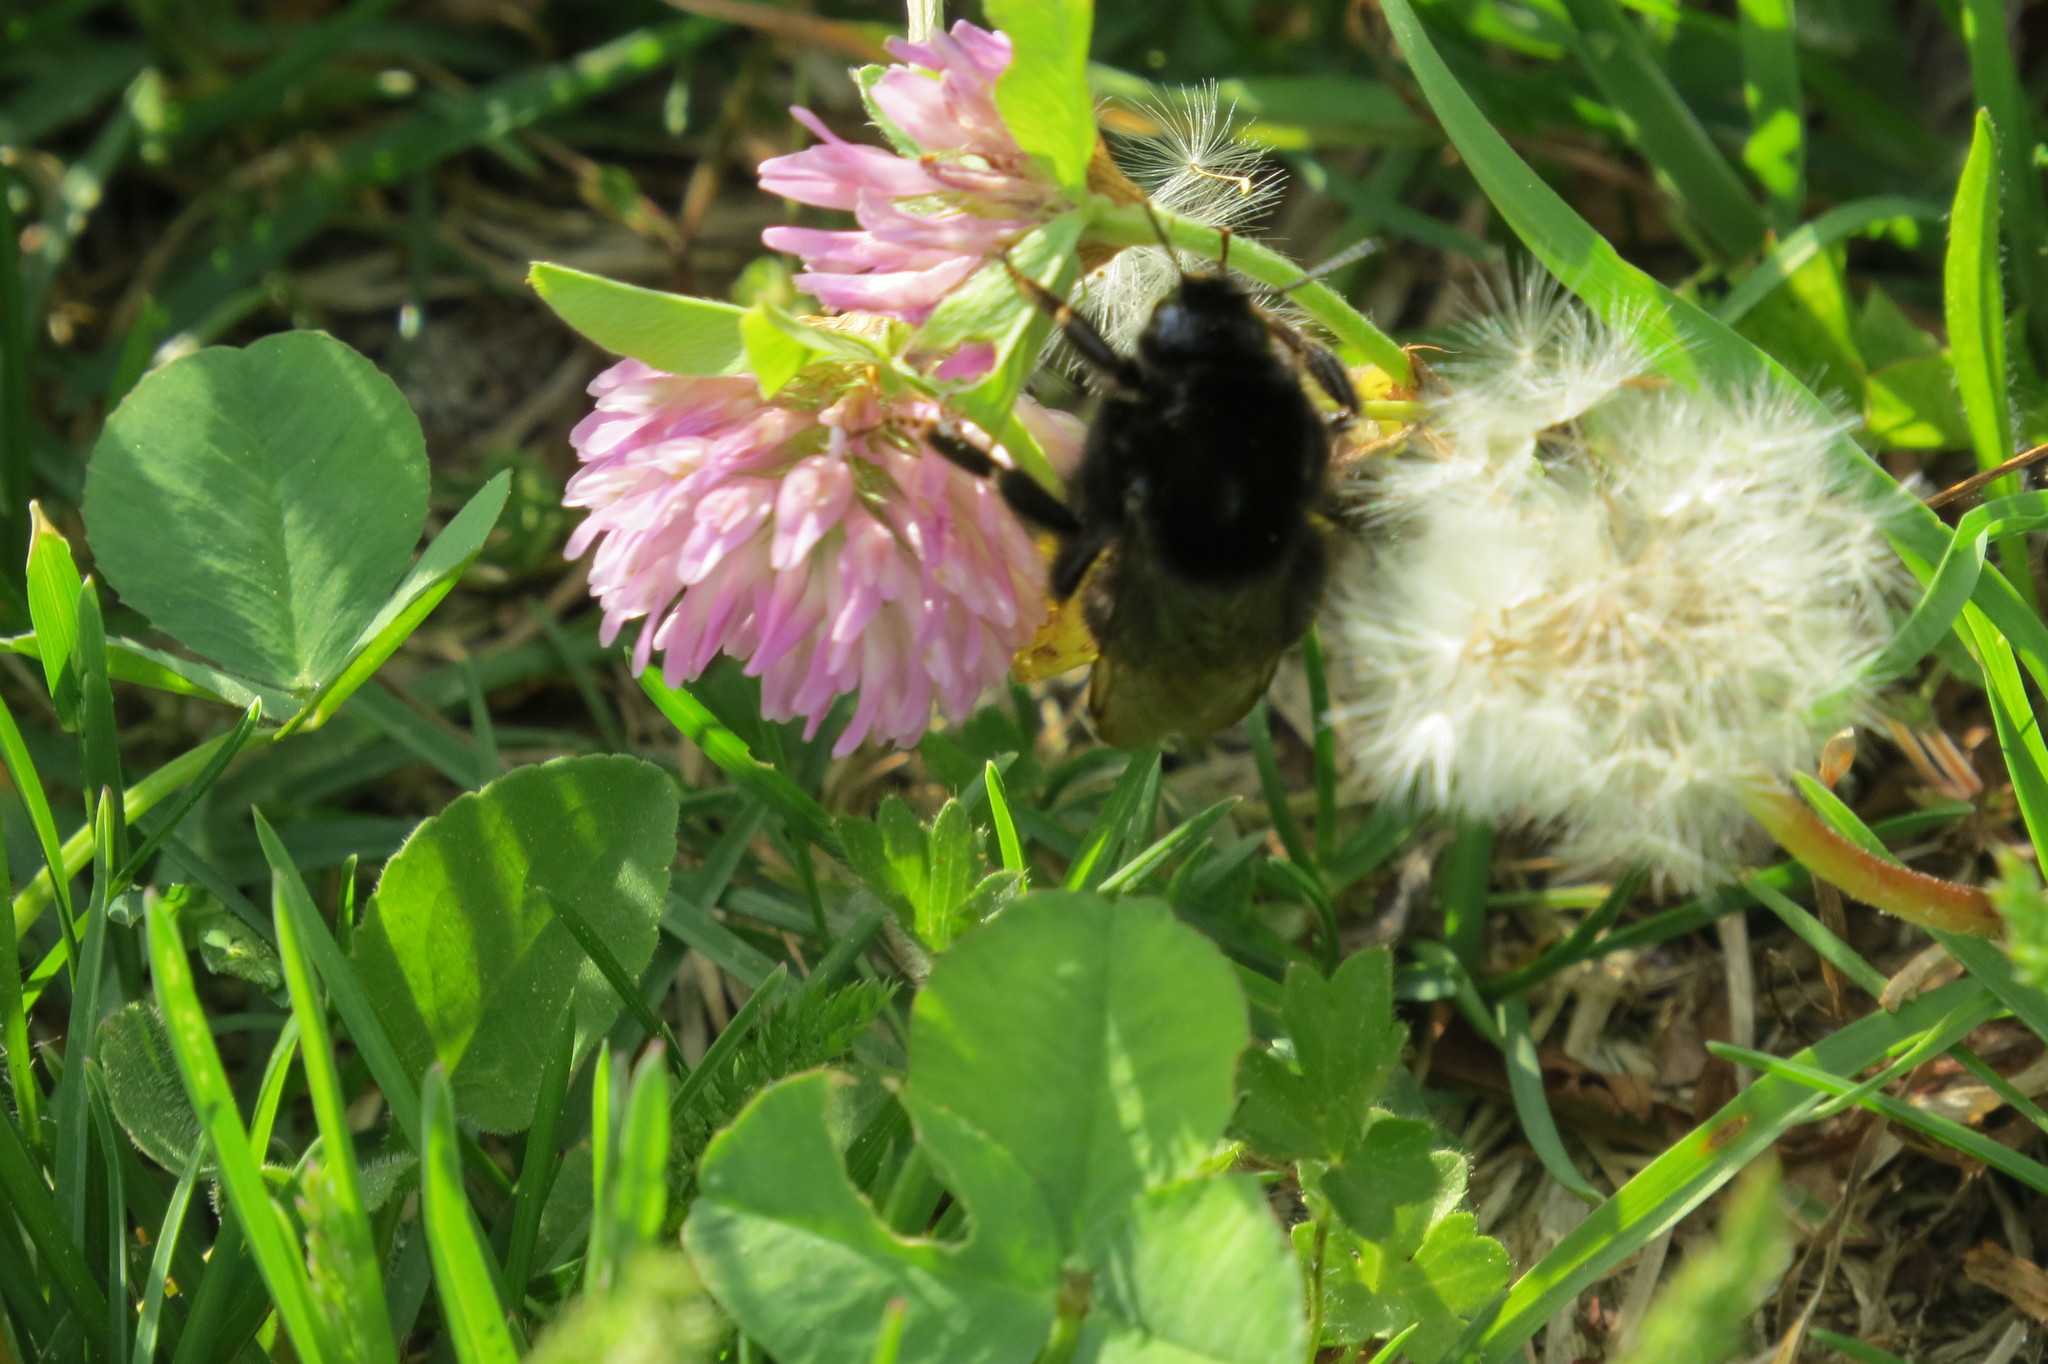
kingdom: Animalia
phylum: Arthropoda
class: Insecta
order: Hymenoptera
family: Apidae
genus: Bombus
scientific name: Bombus lapidarius
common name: Large red-tailed humble-bee
